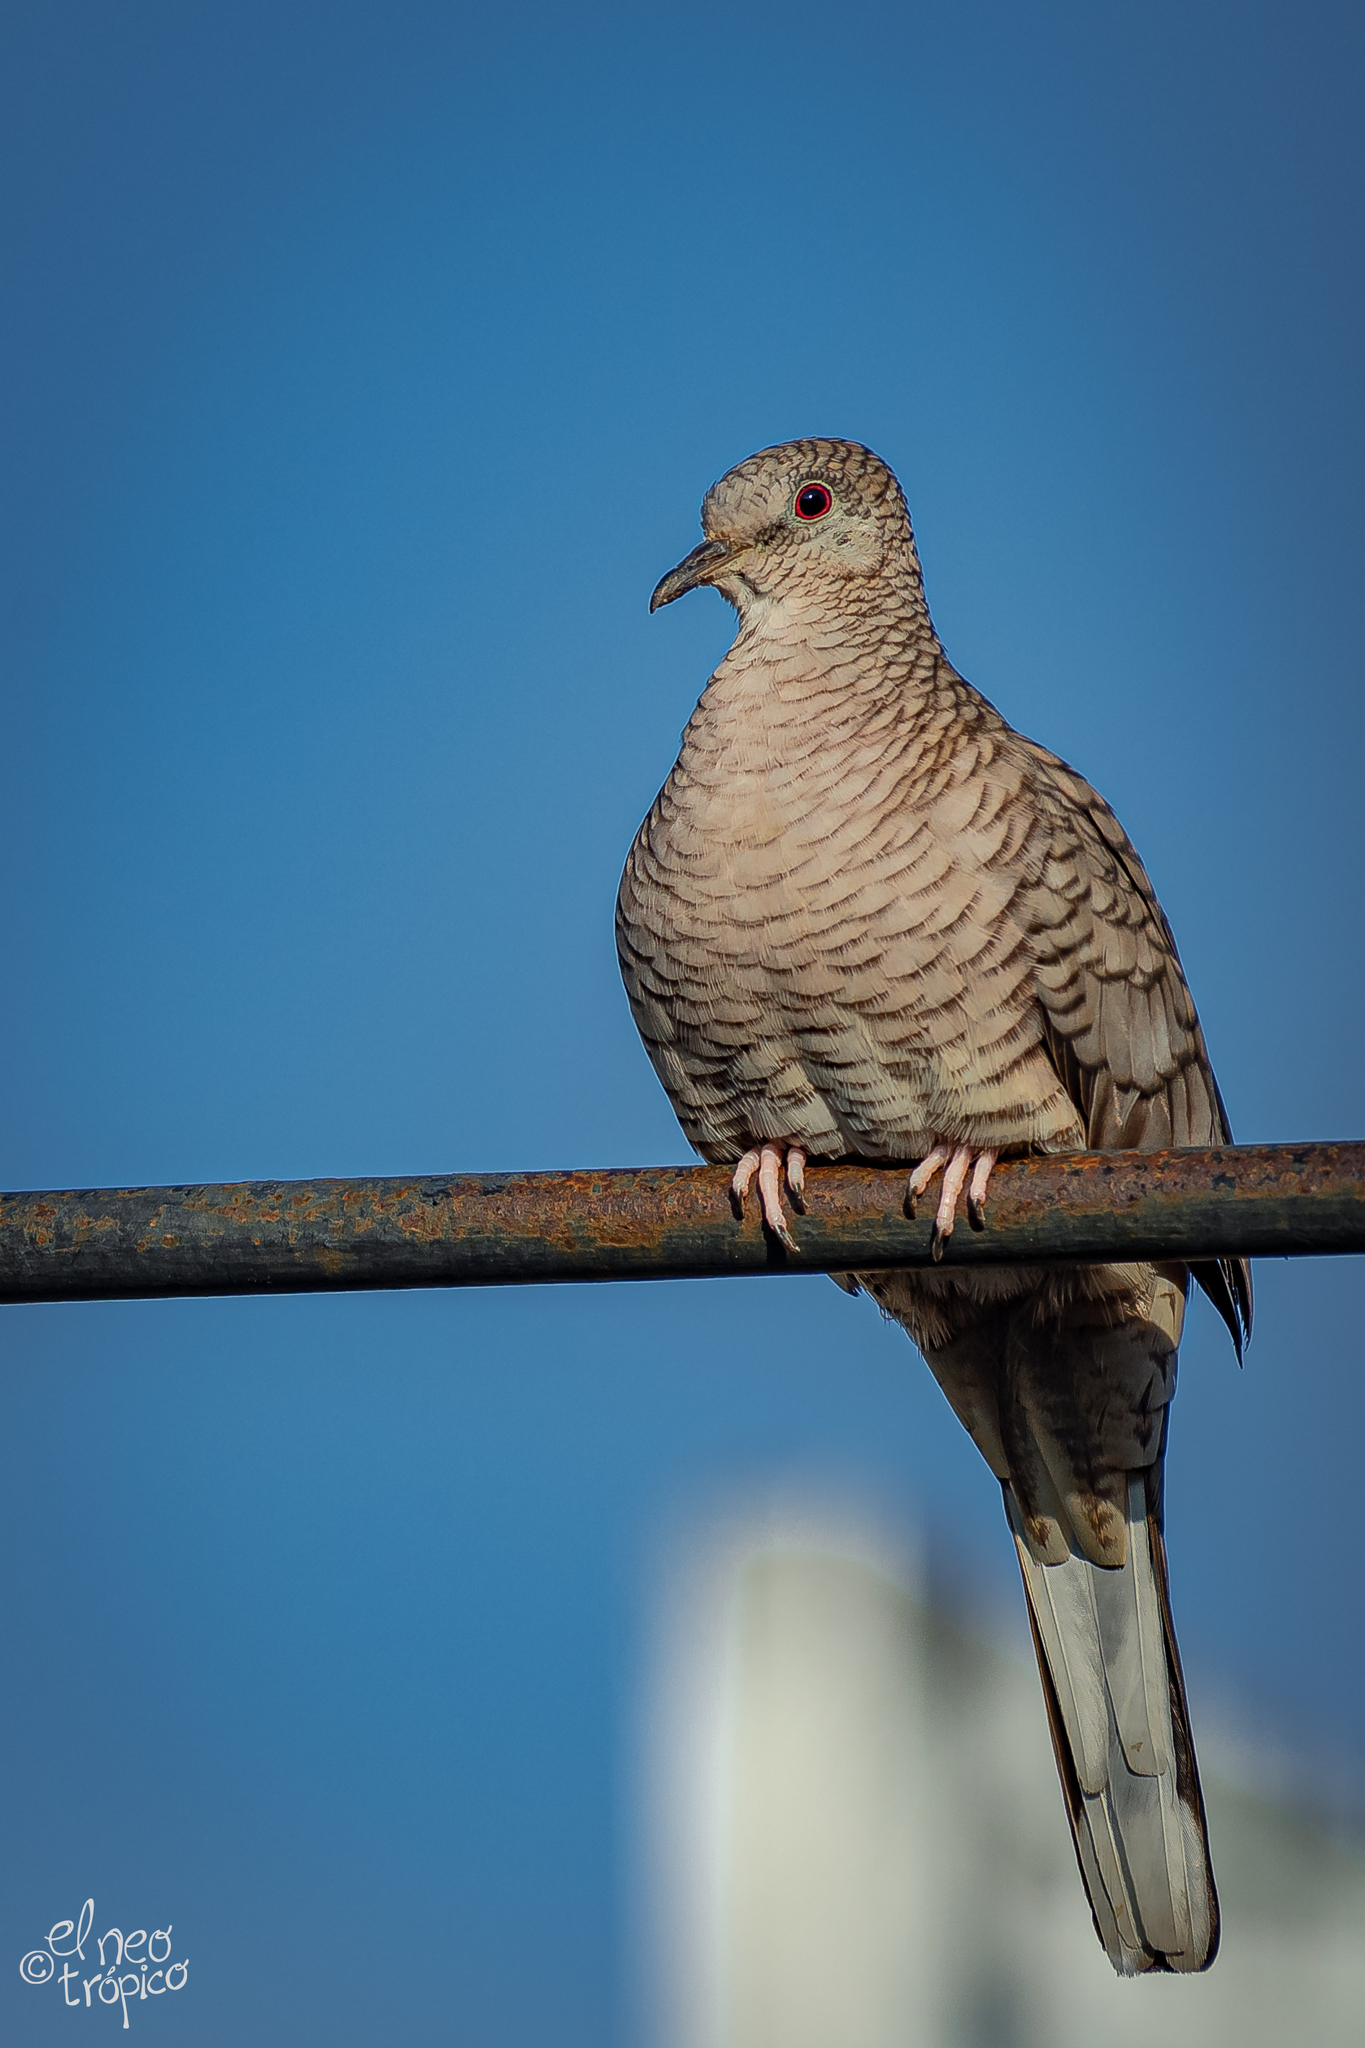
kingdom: Animalia
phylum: Chordata
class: Aves
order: Columbiformes
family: Columbidae
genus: Columbina
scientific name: Columbina inca
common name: Inca dove
